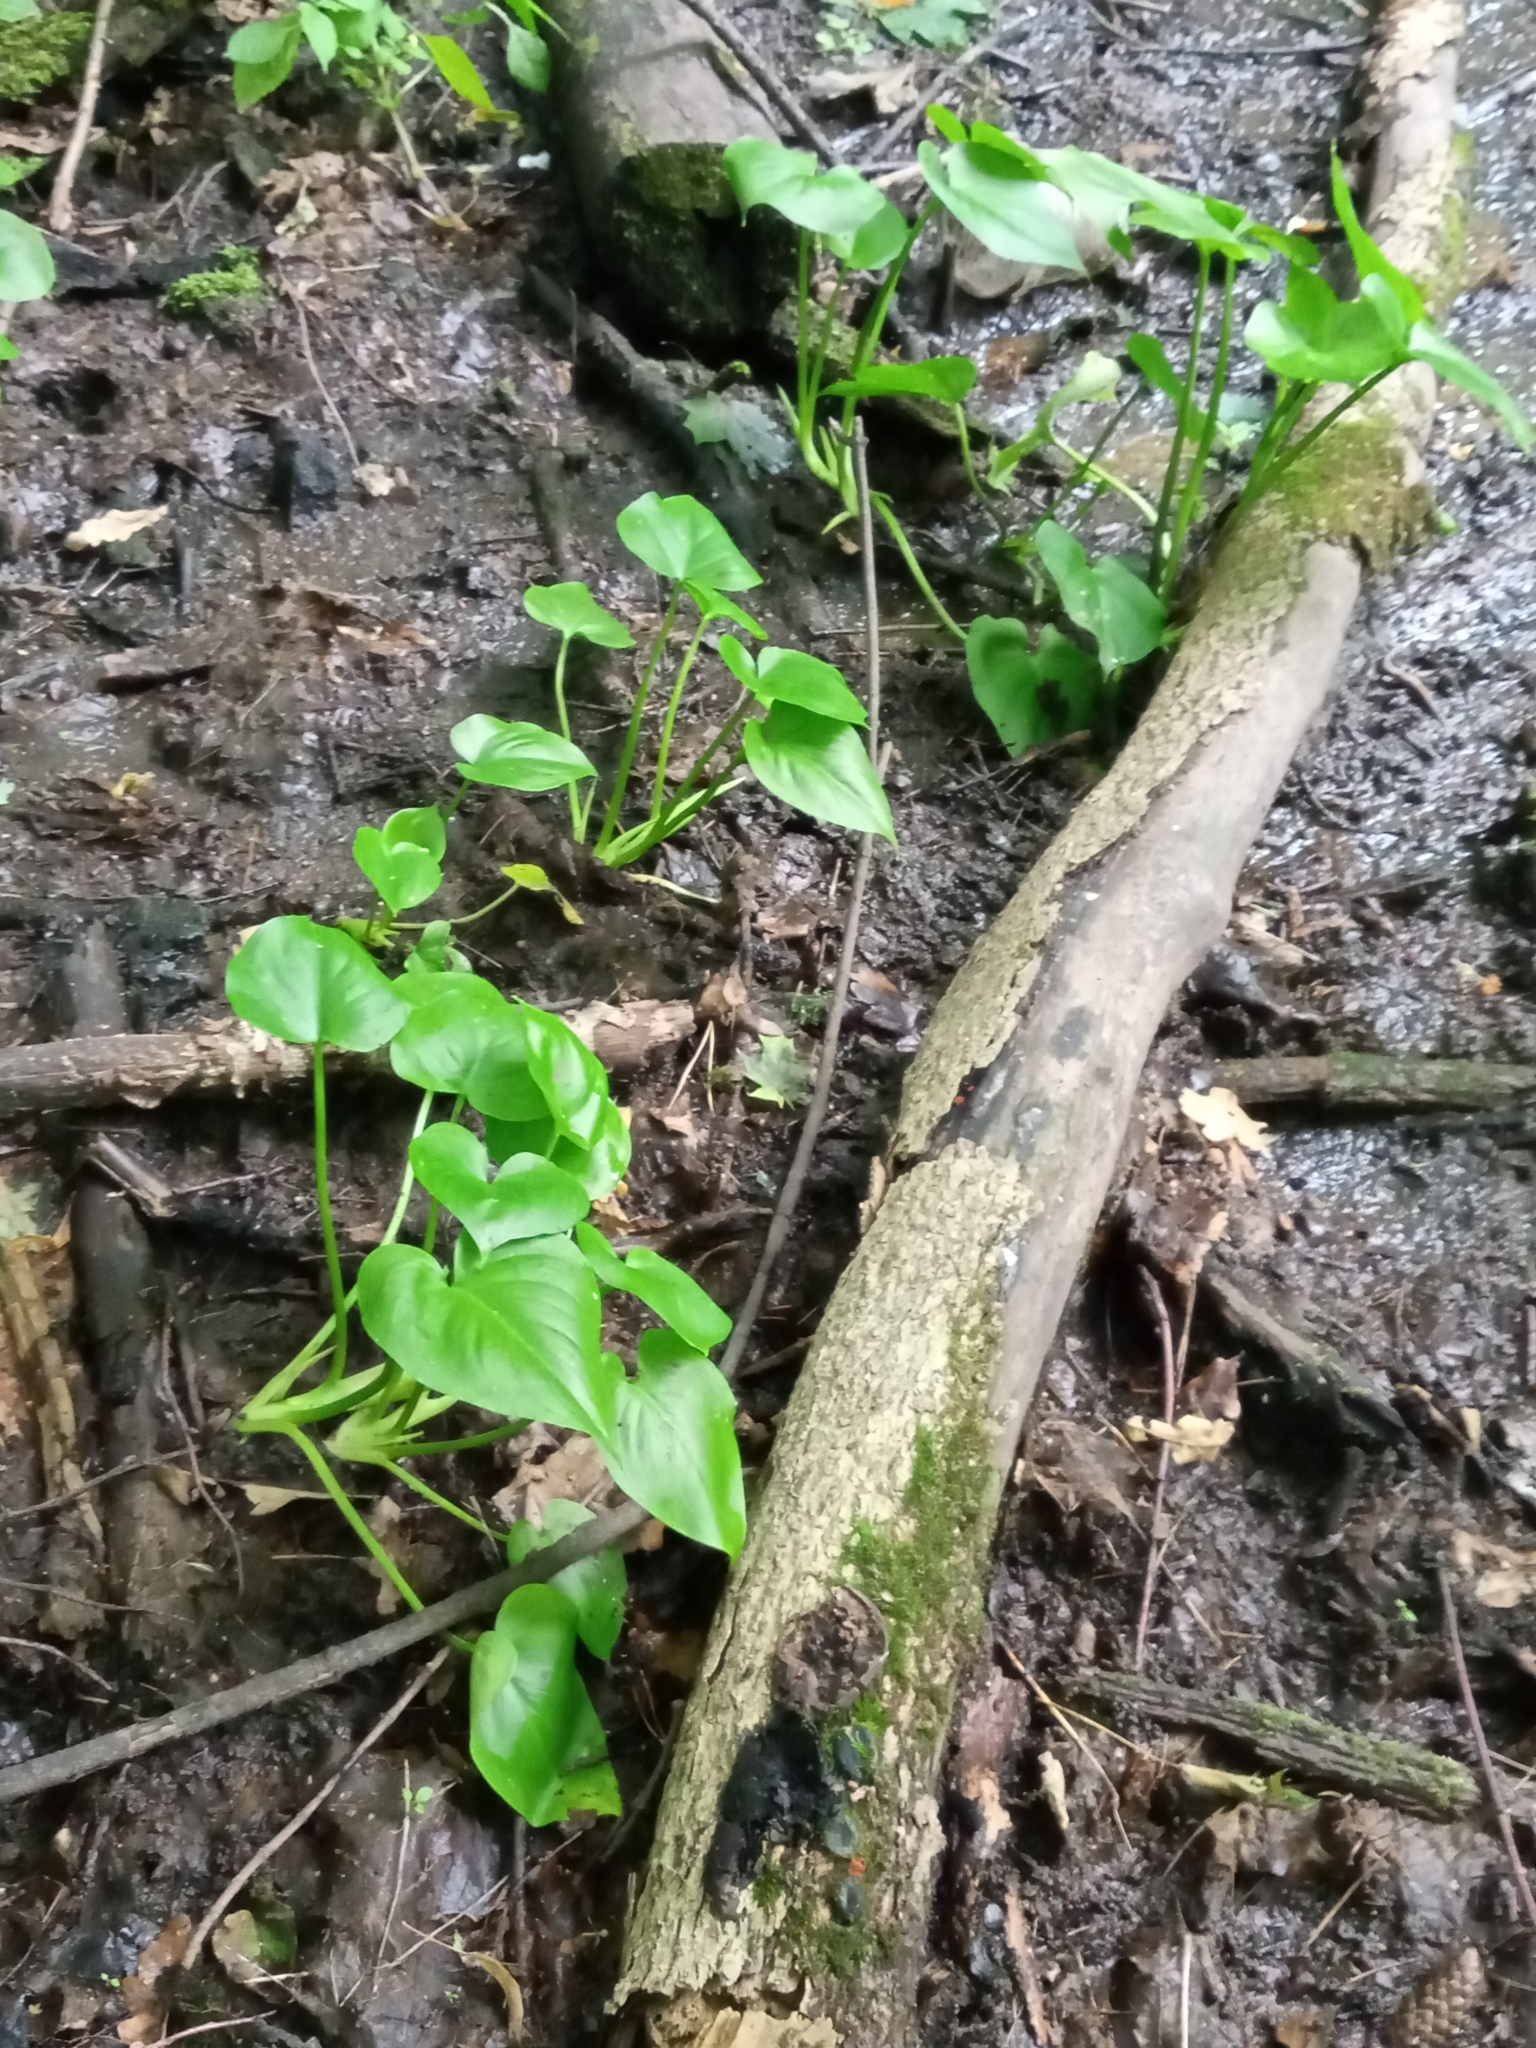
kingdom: Plantae
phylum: Tracheophyta
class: Liliopsida
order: Alismatales
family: Araceae
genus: Calla
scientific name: Calla palustris
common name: Bog arum
